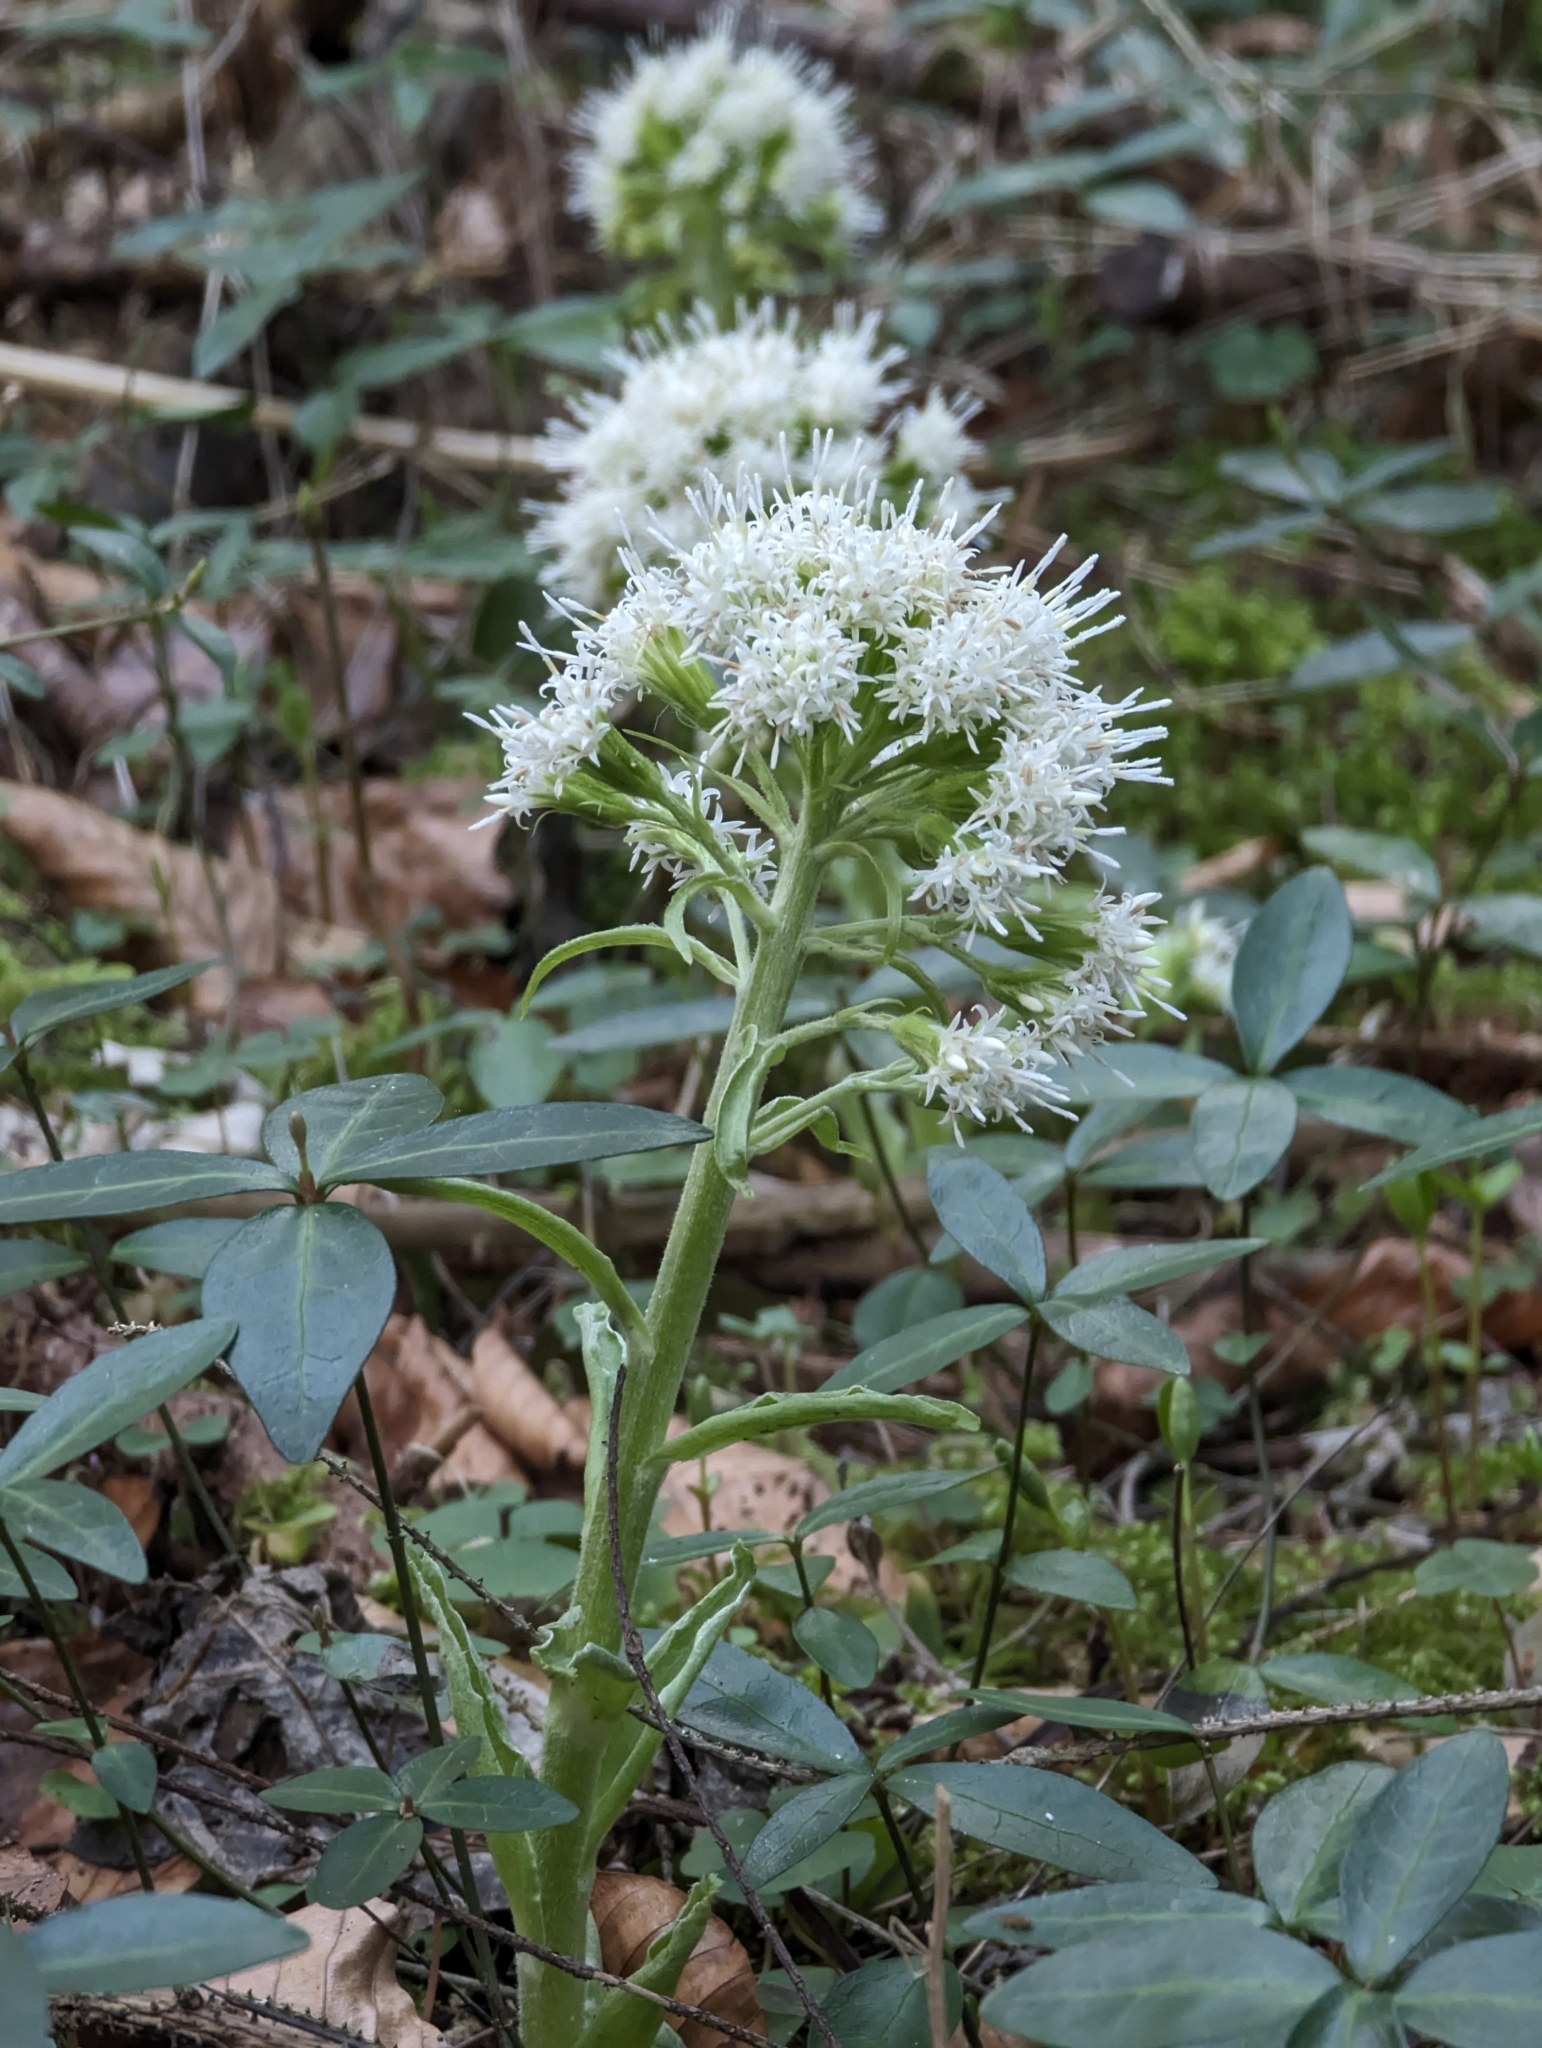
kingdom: Plantae
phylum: Tracheophyta
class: Magnoliopsida
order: Asterales
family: Asteraceae
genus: Petasites
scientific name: Petasites albus
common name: White butterbur
